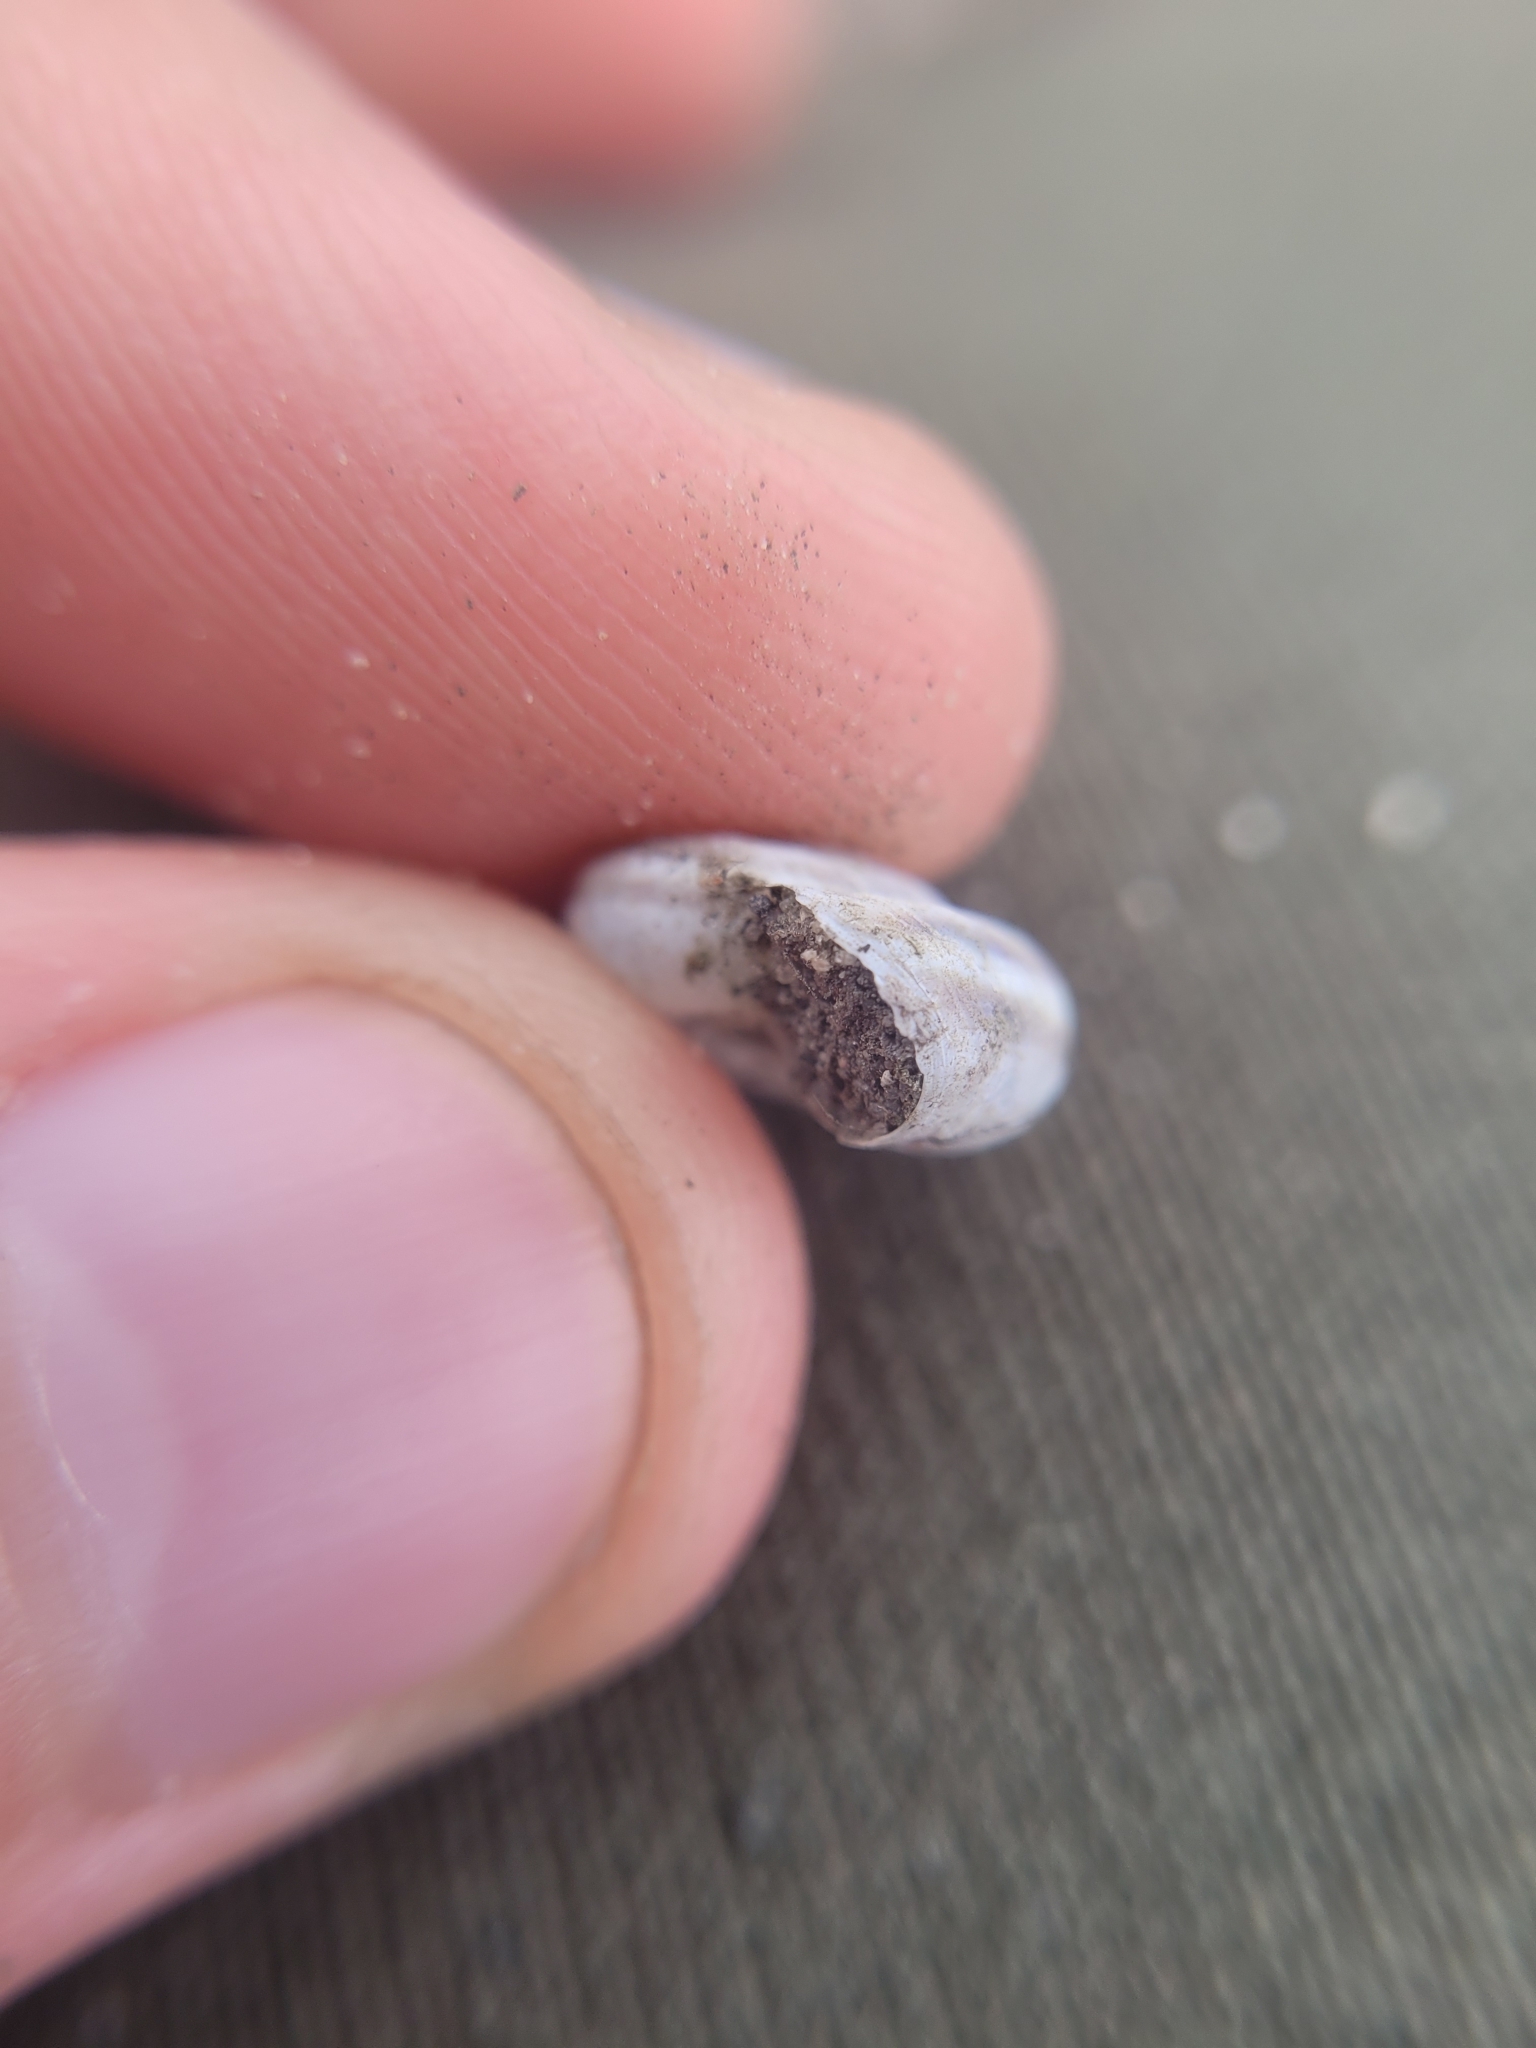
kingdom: Animalia
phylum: Mollusca
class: Gastropoda
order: Stylommatophora
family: Geomitridae
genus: Xerolenta
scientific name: Xerolenta obvia
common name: White heath snail
